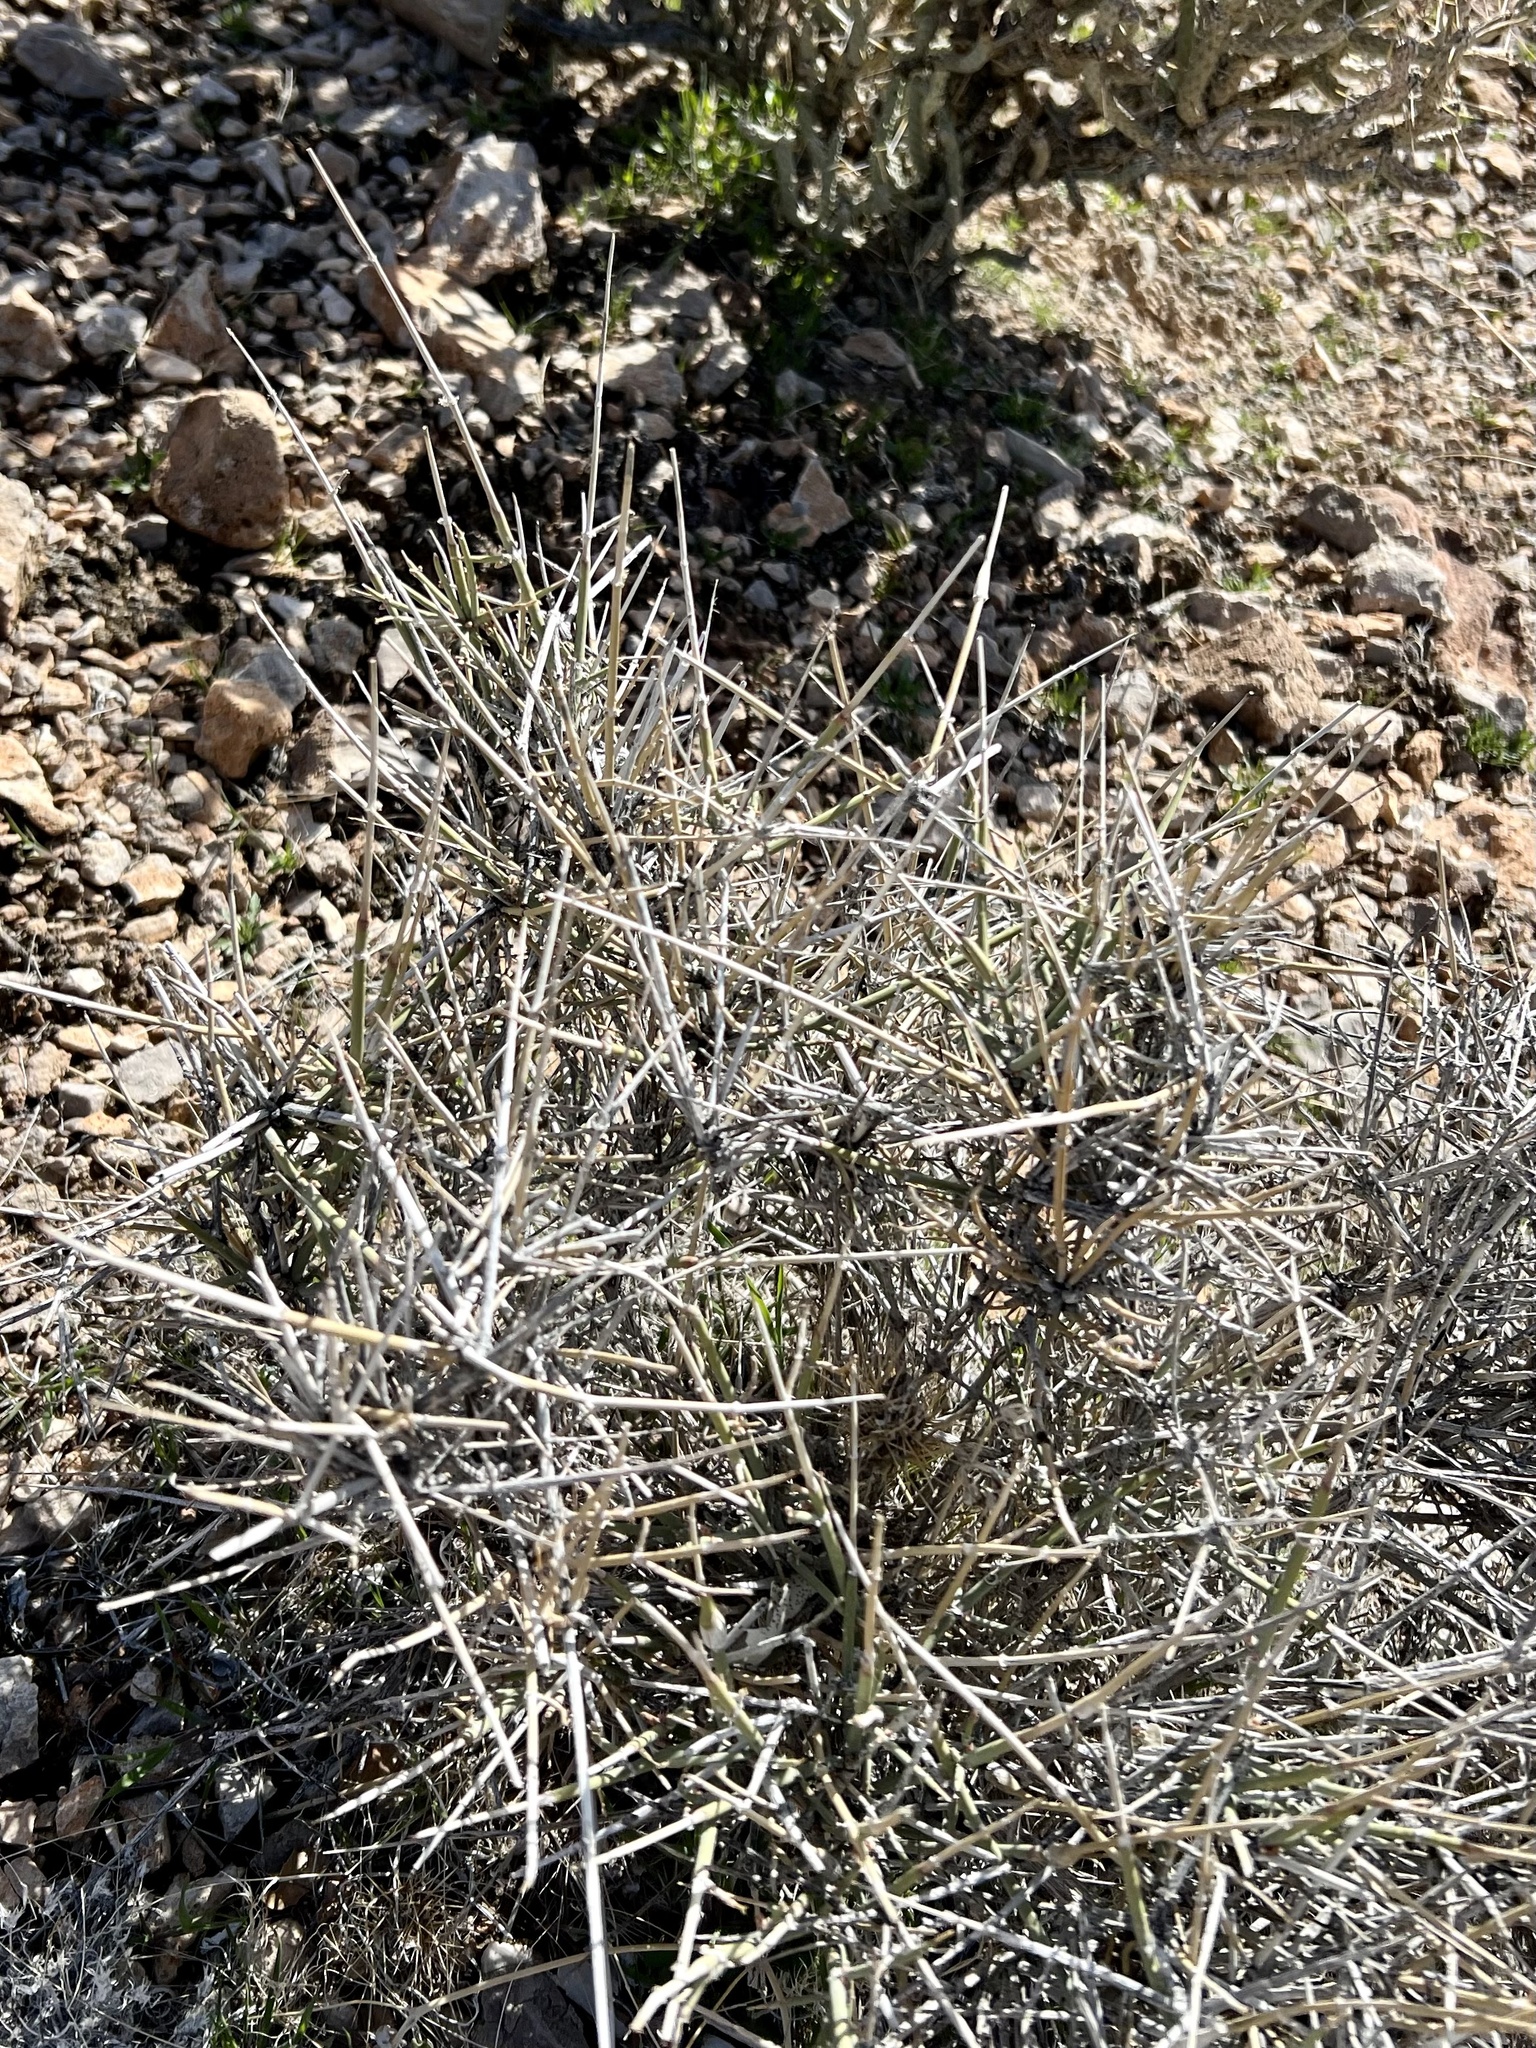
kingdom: Plantae
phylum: Tracheophyta
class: Gnetopsida
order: Ephedrales
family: Ephedraceae
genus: Ephedra
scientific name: Ephedra nevadensis
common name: Gray ephedra
